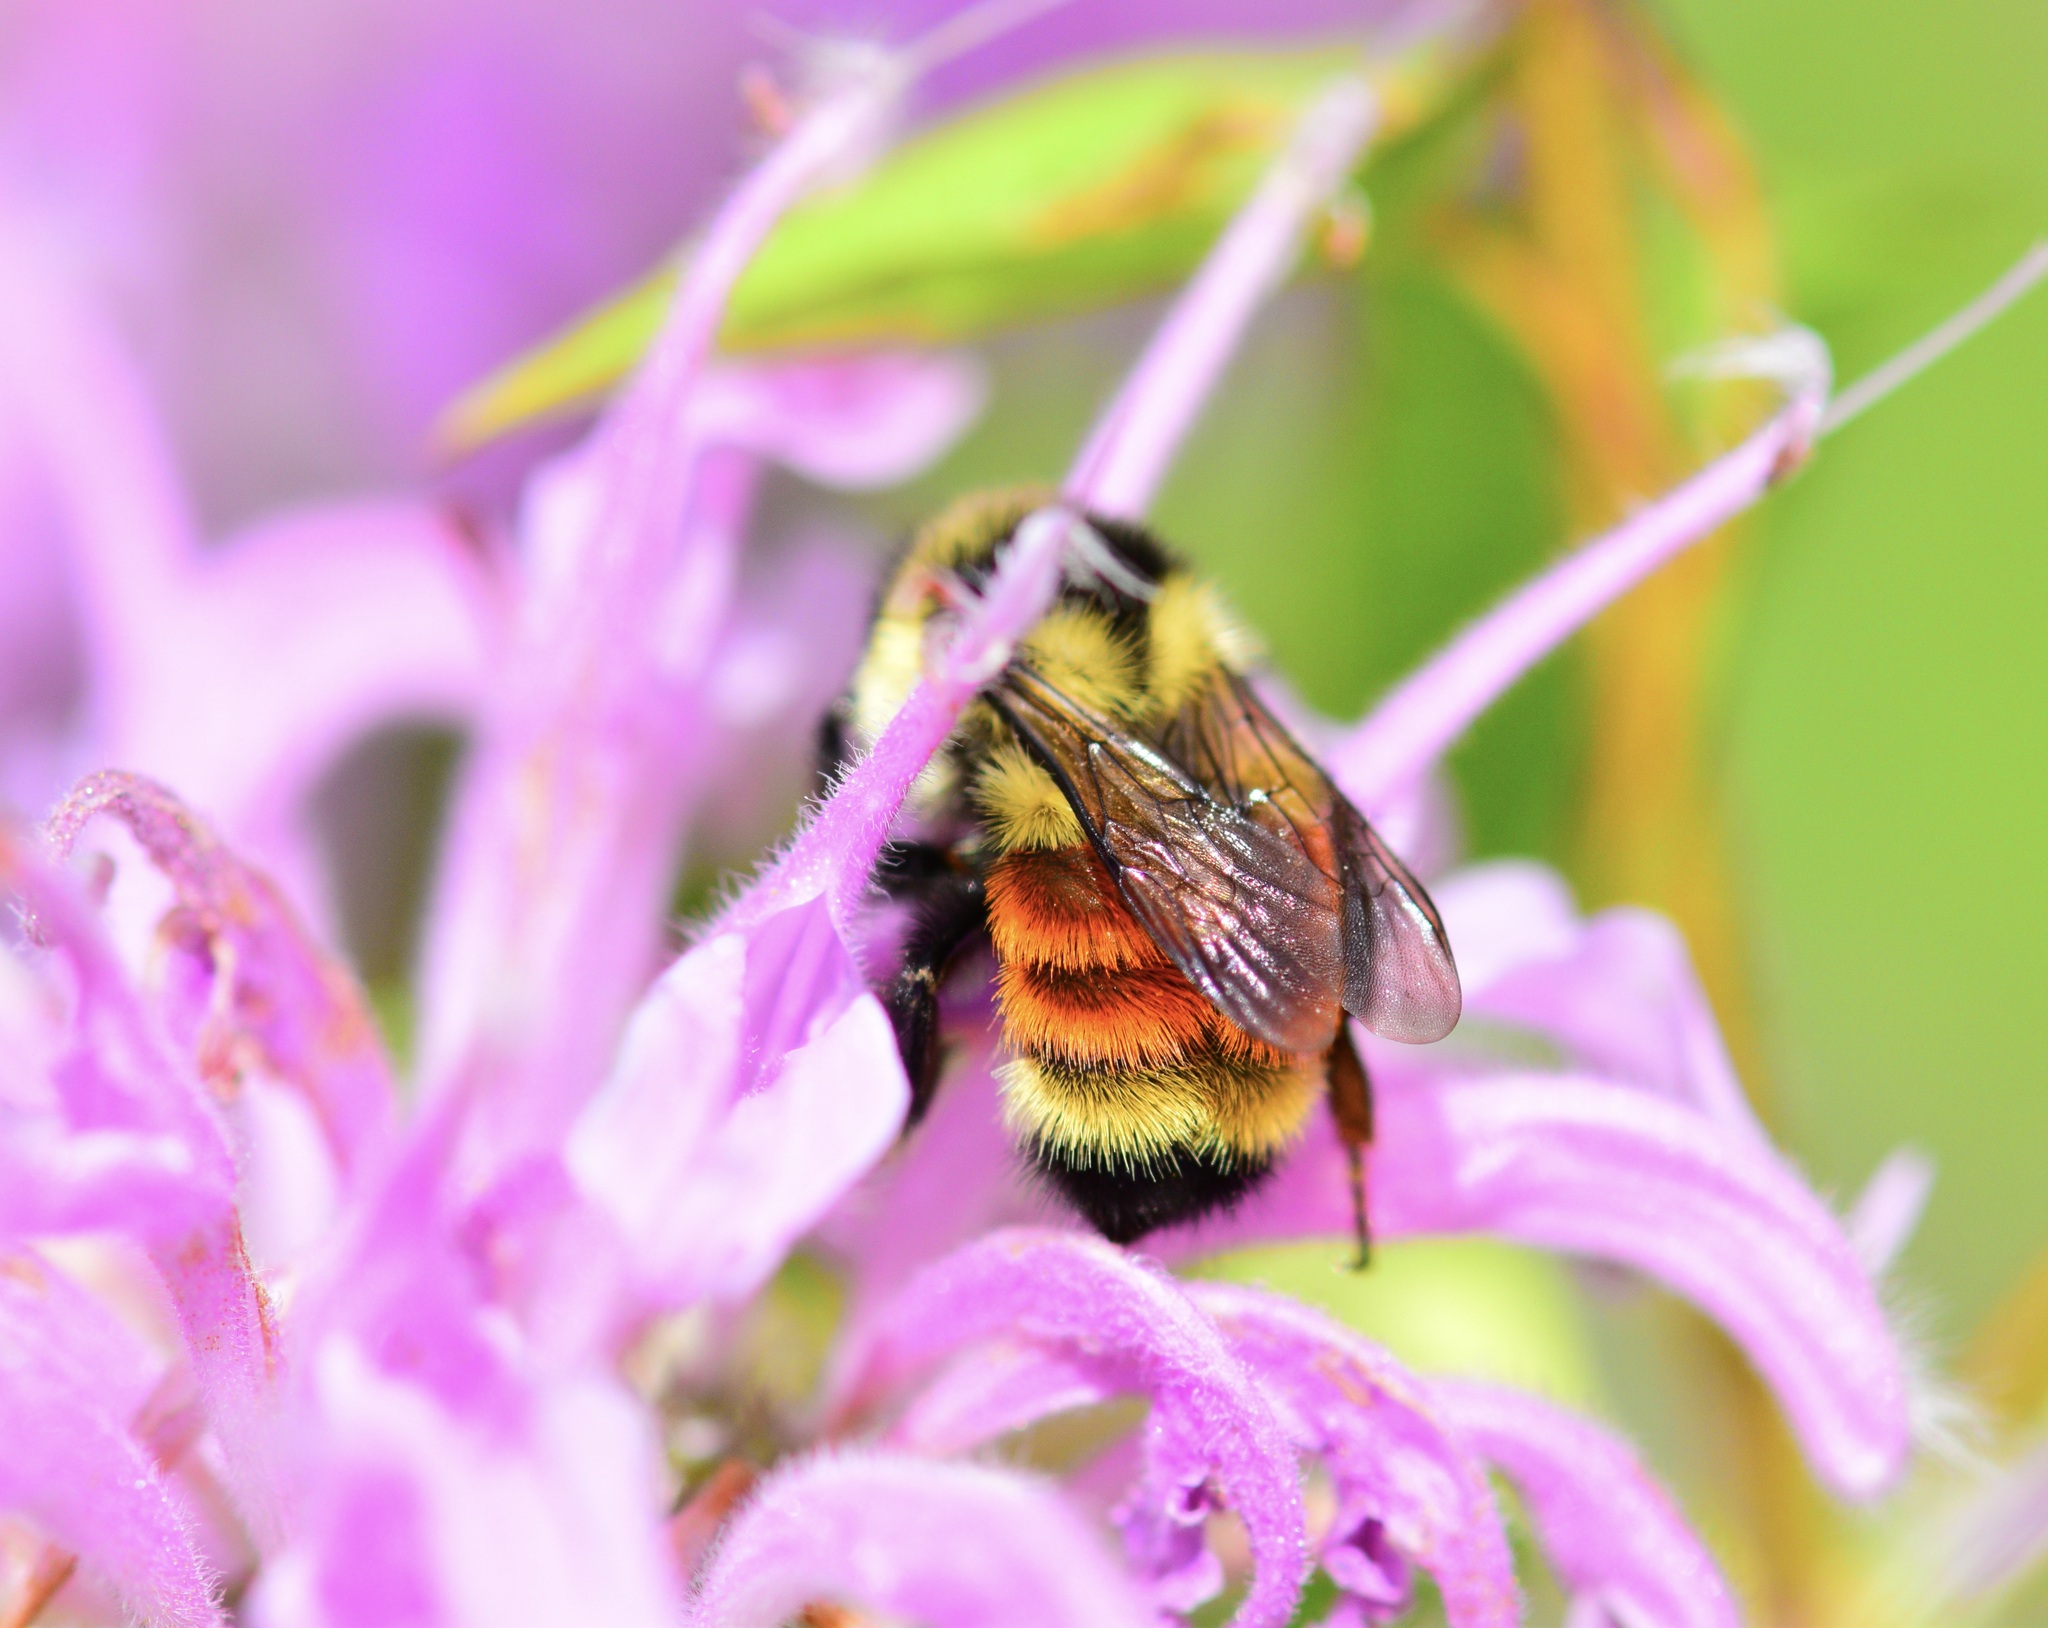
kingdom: Animalia
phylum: Arthropoda
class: Insecta
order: Hymenoptera
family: Apidae
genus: Bombus
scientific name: Bombus ternarius
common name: Tri-colored bumble bee
